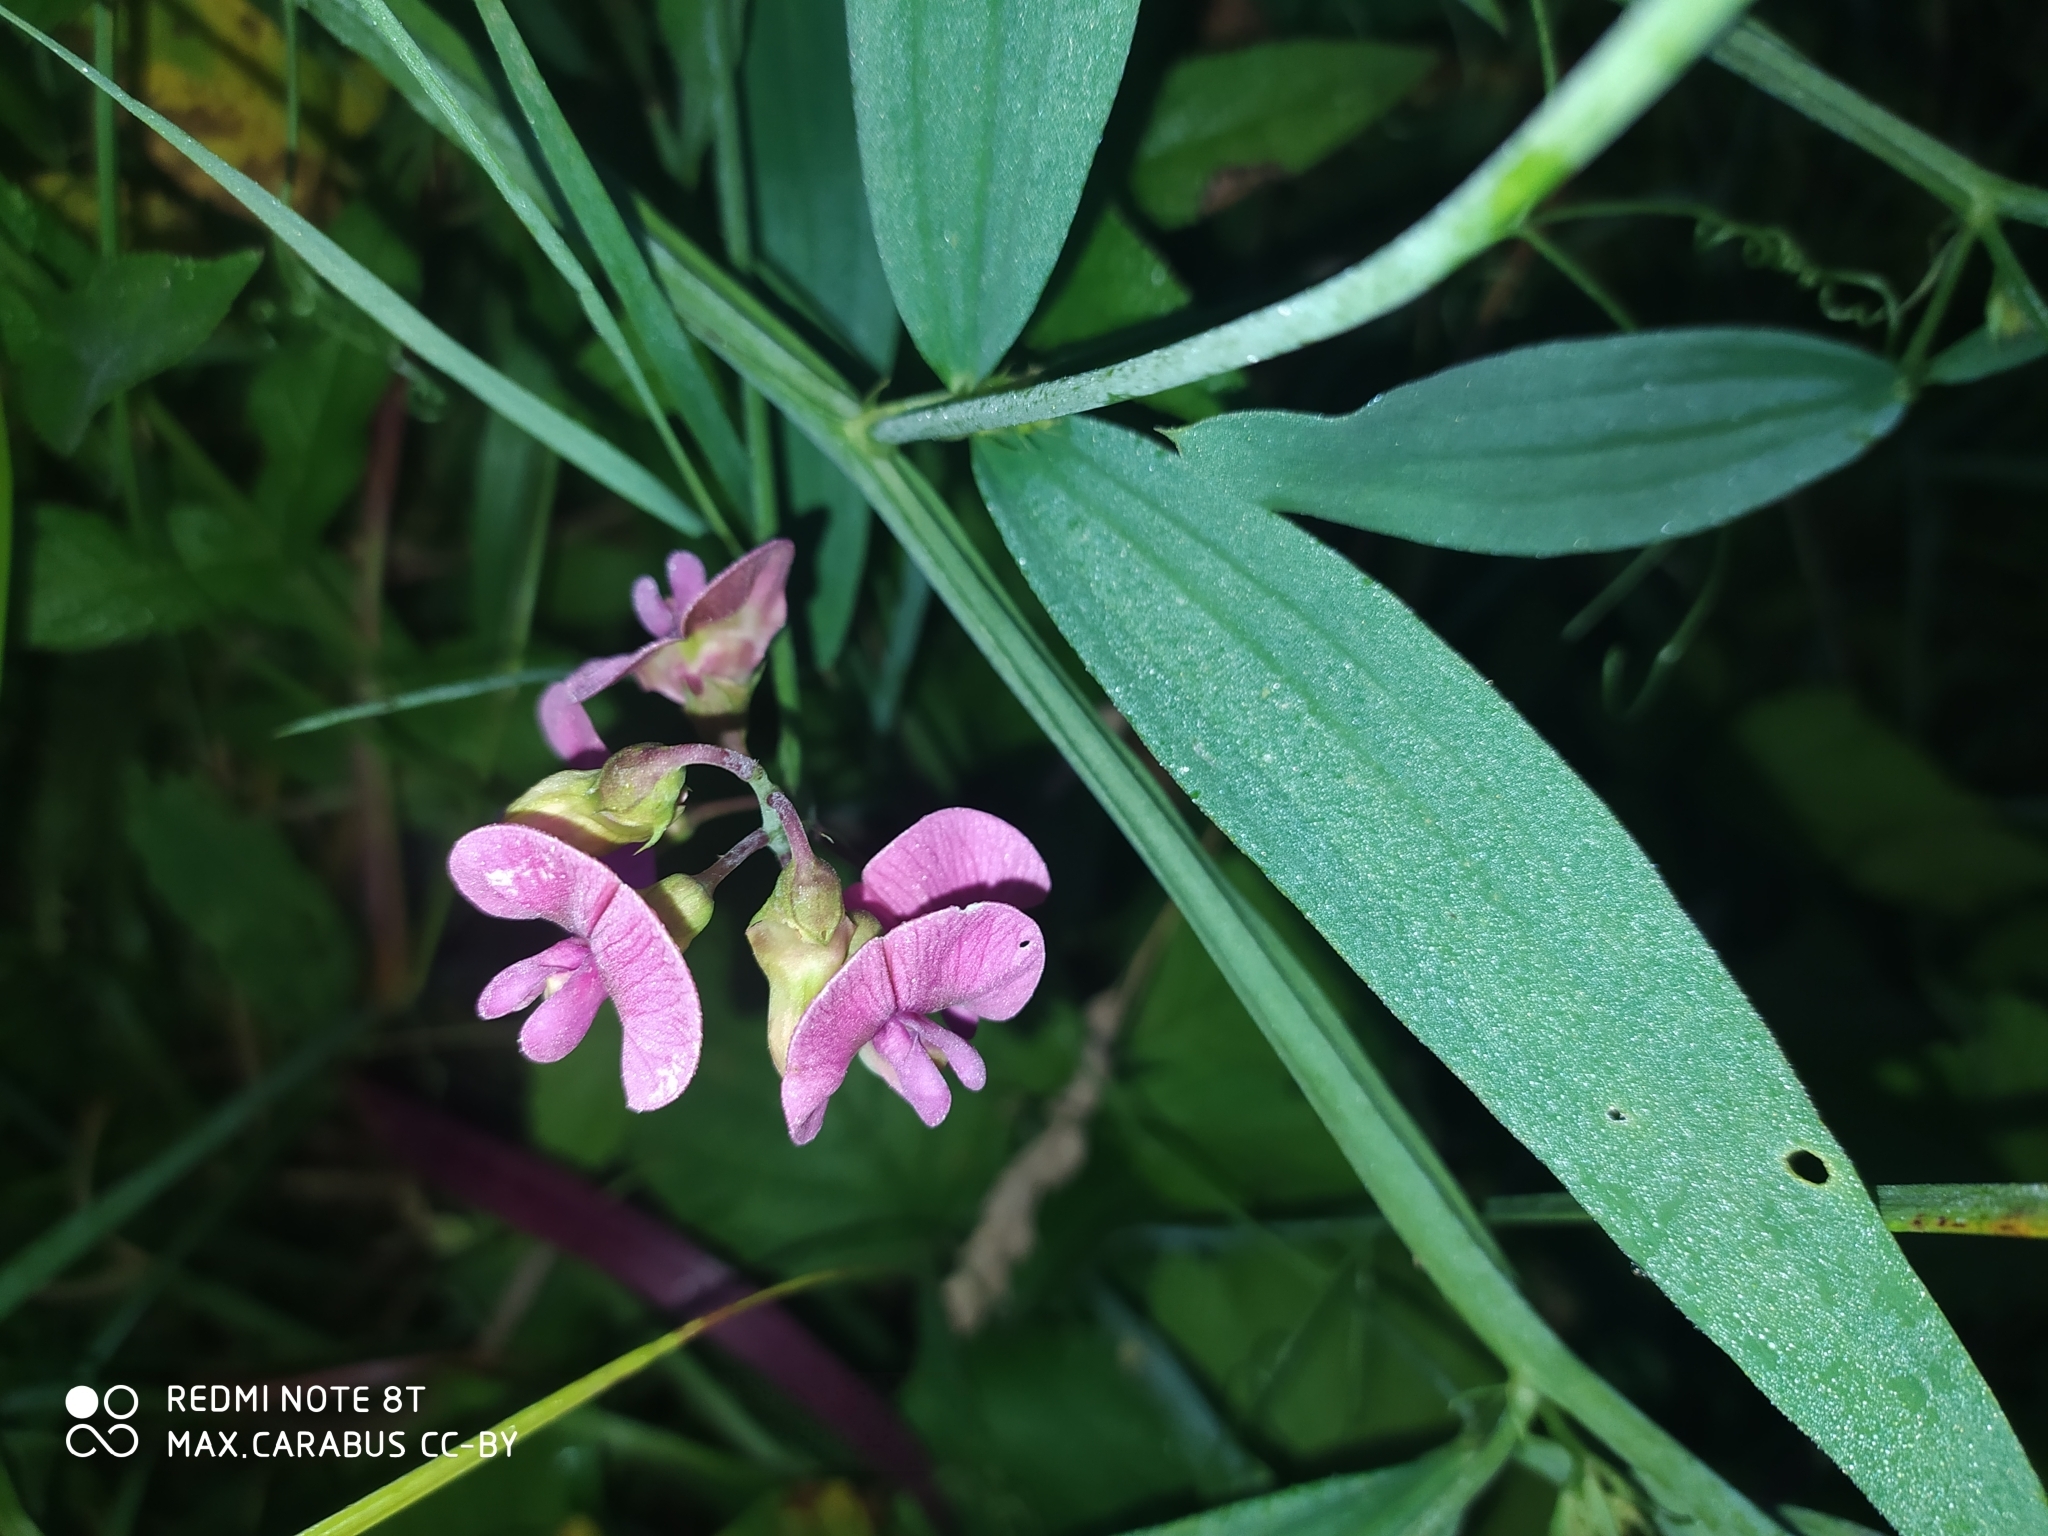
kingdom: Plantae
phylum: Tracheophyta
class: Magnoliopsida
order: Fabales
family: Fabaceae
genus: Lathyrus
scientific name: Lathyrus sylvestris
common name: Flat pea
